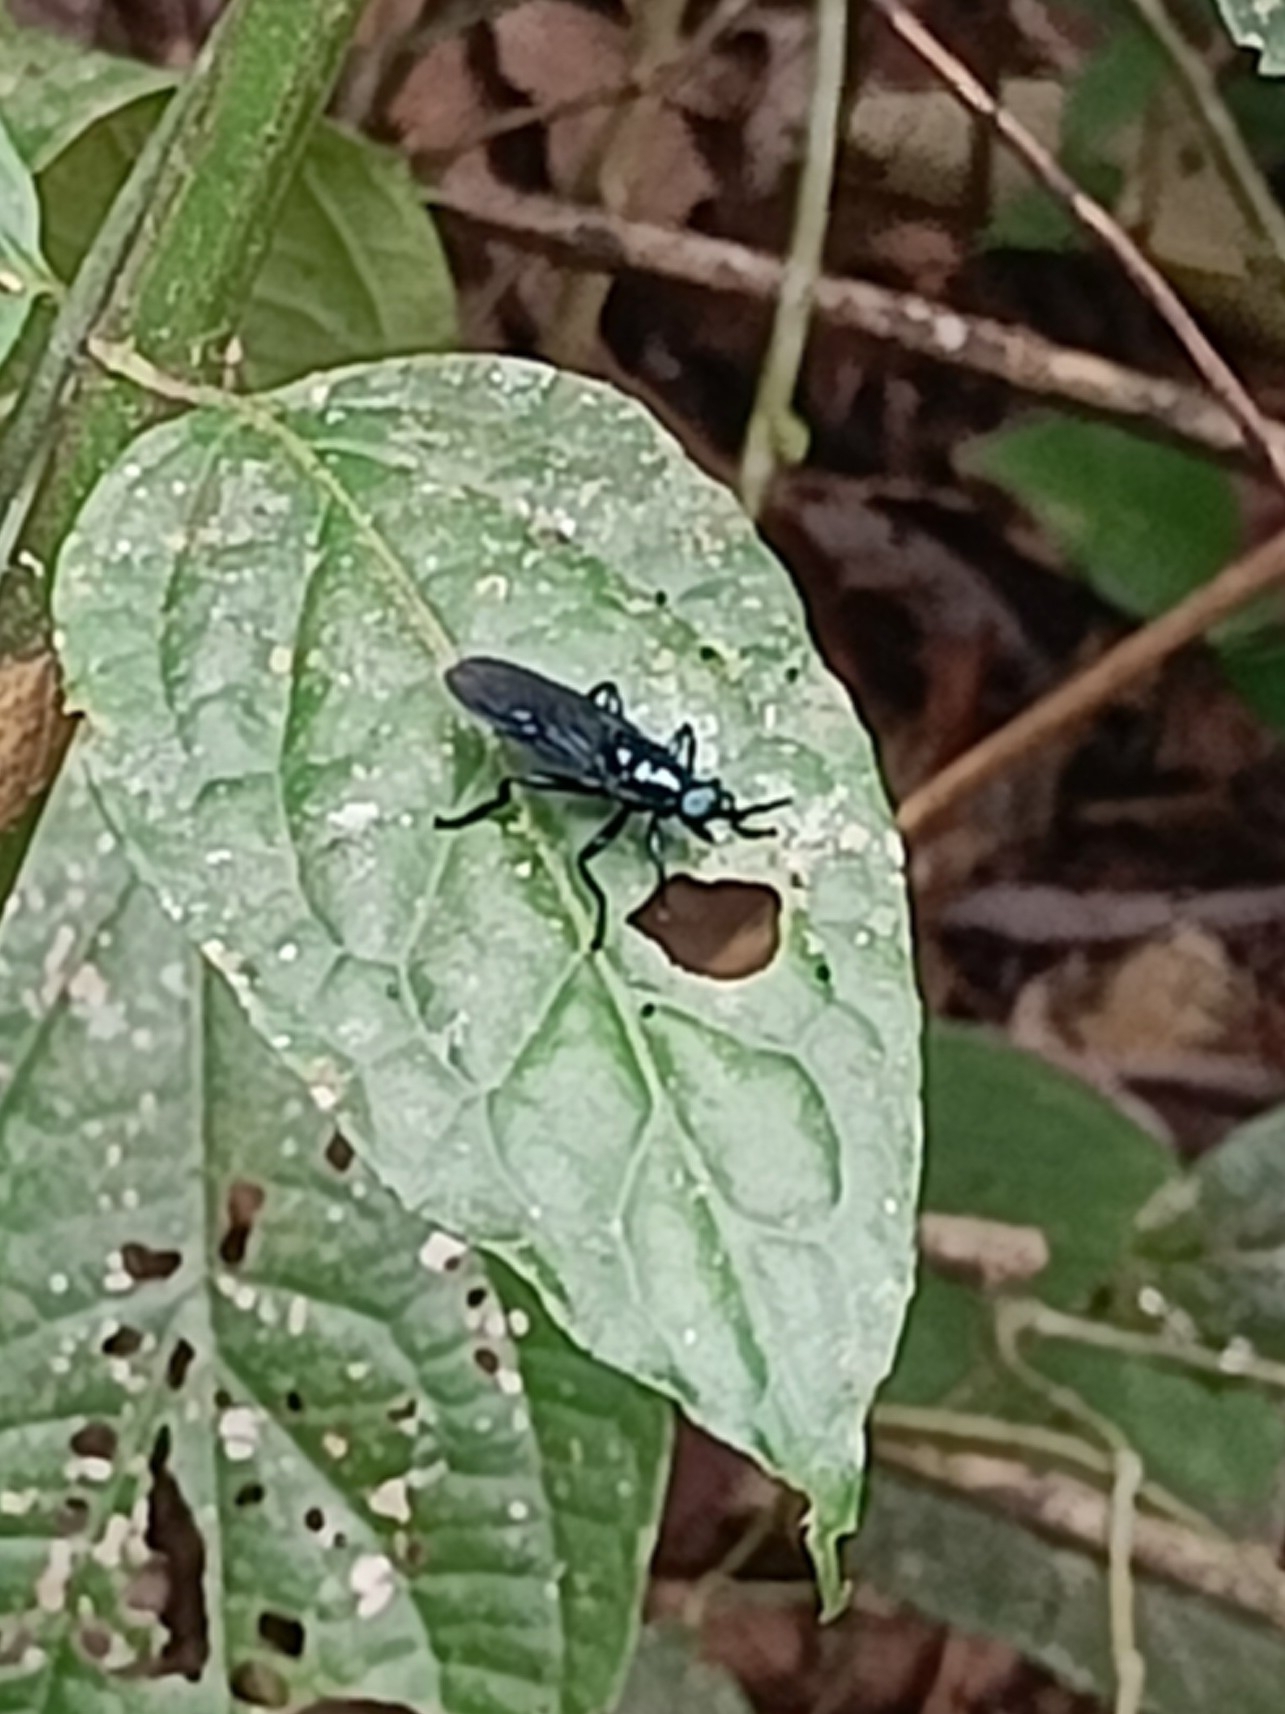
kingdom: Animalia
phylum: Arthropoda
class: Insecta
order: Diptera
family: Stratiomyidae
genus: Cyphomyia
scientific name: Cyphomyia unicolor
